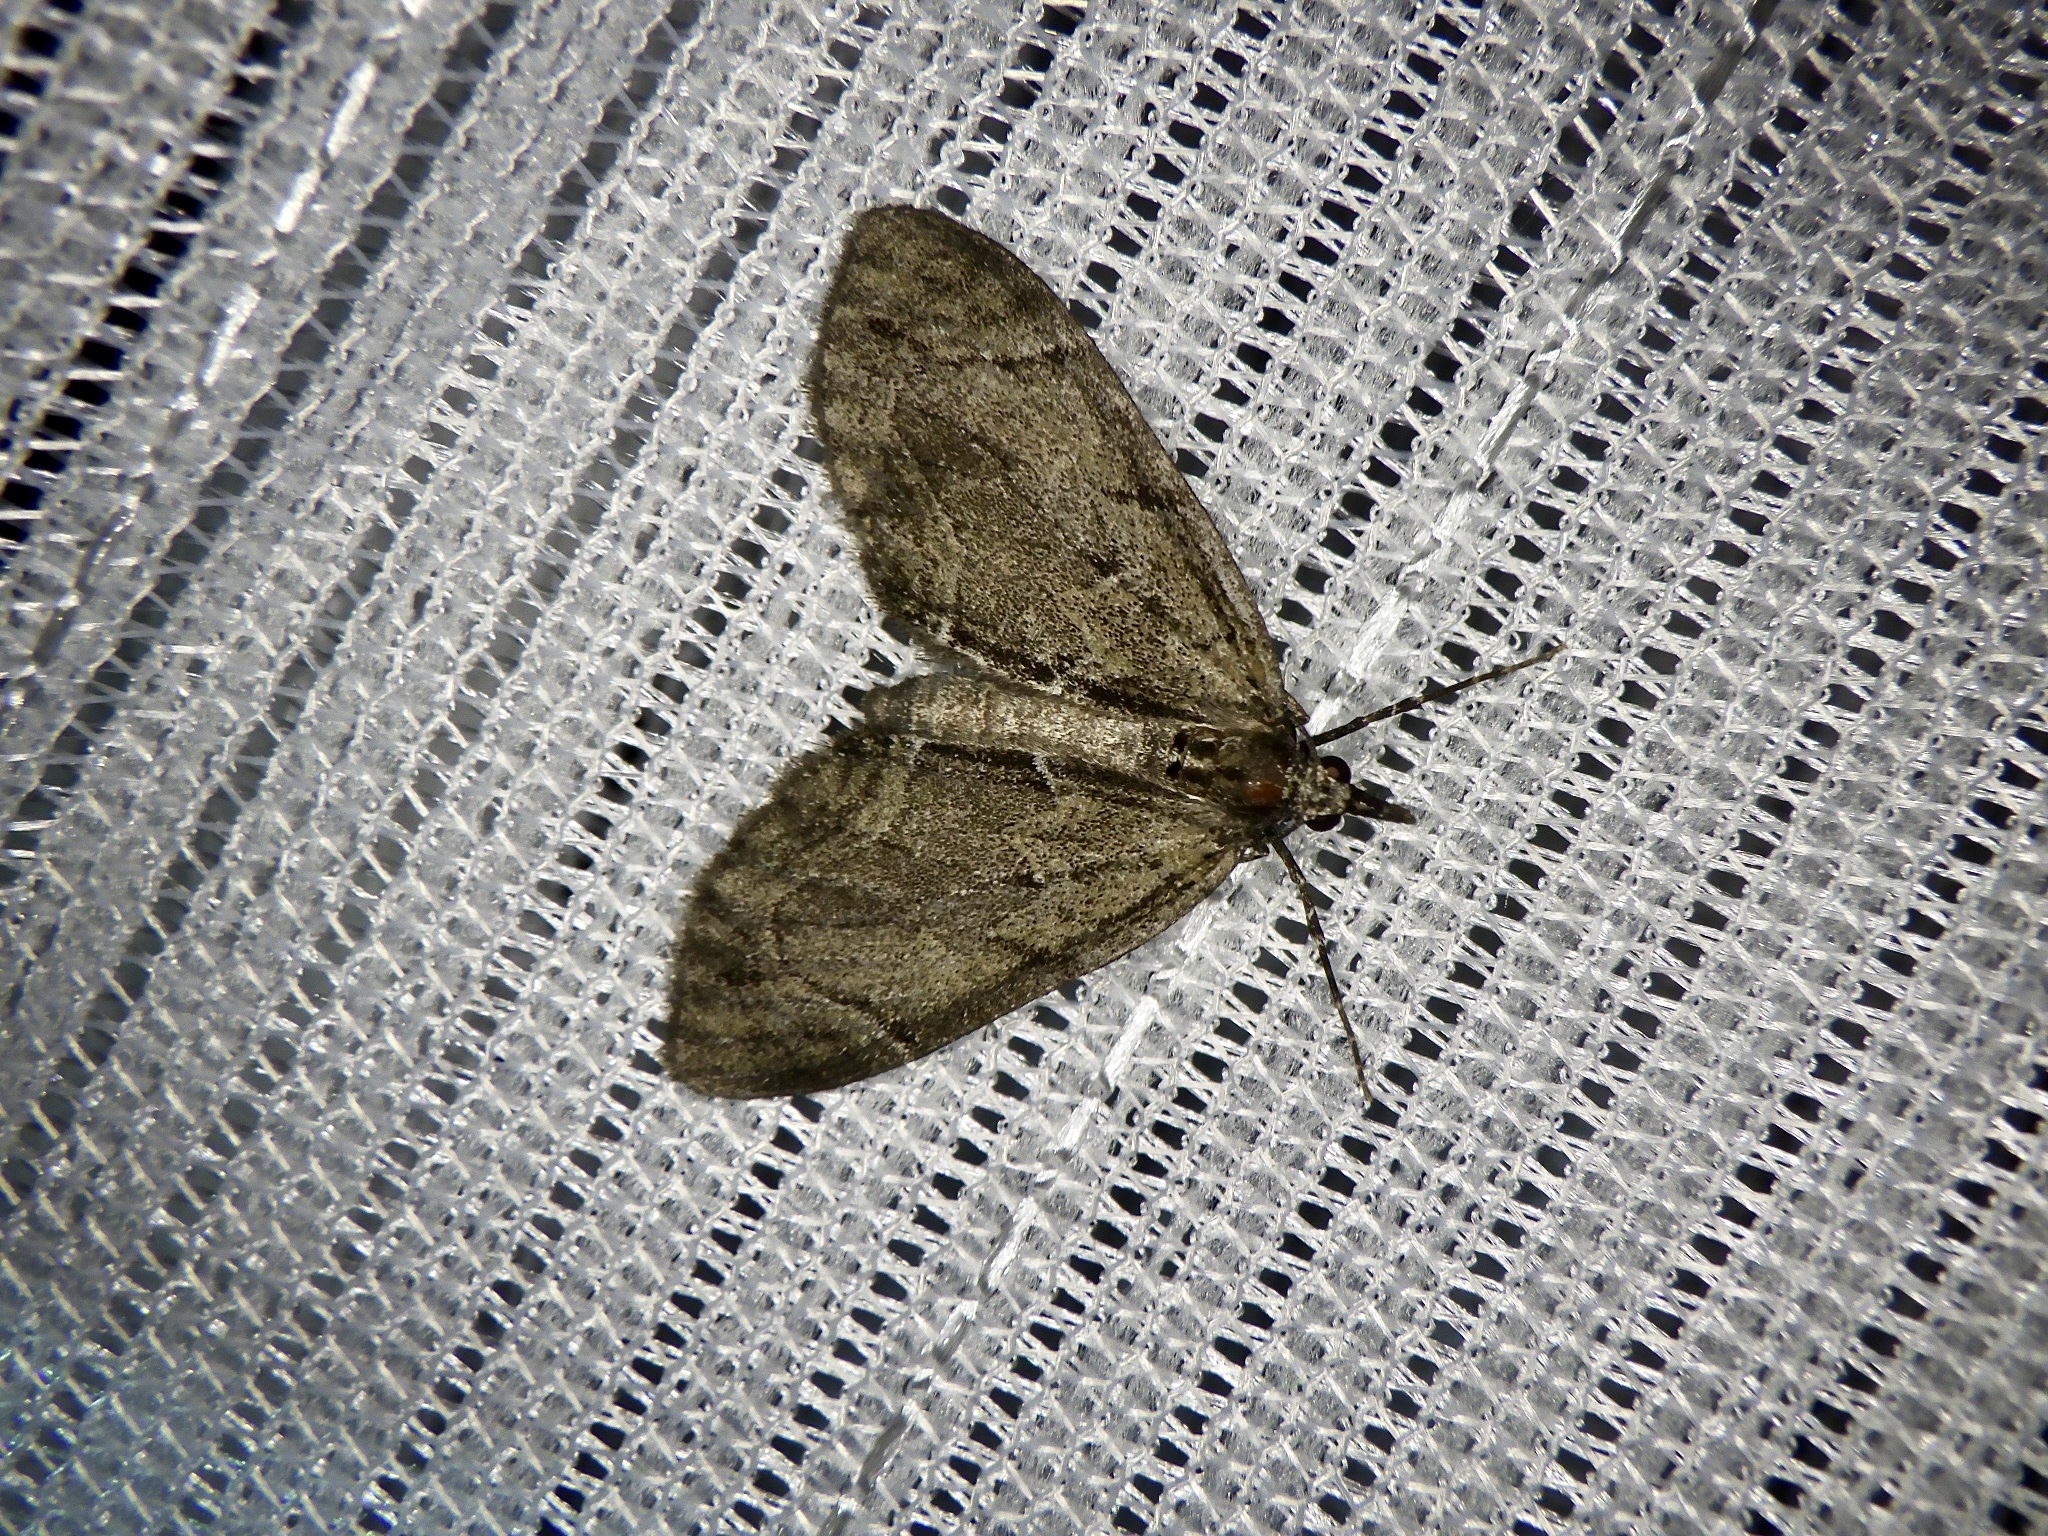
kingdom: Animalia
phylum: Arthropoda
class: Insecta
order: Lepidoptera
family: Geometridae
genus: Lobophorodes
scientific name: Lobophorodes
